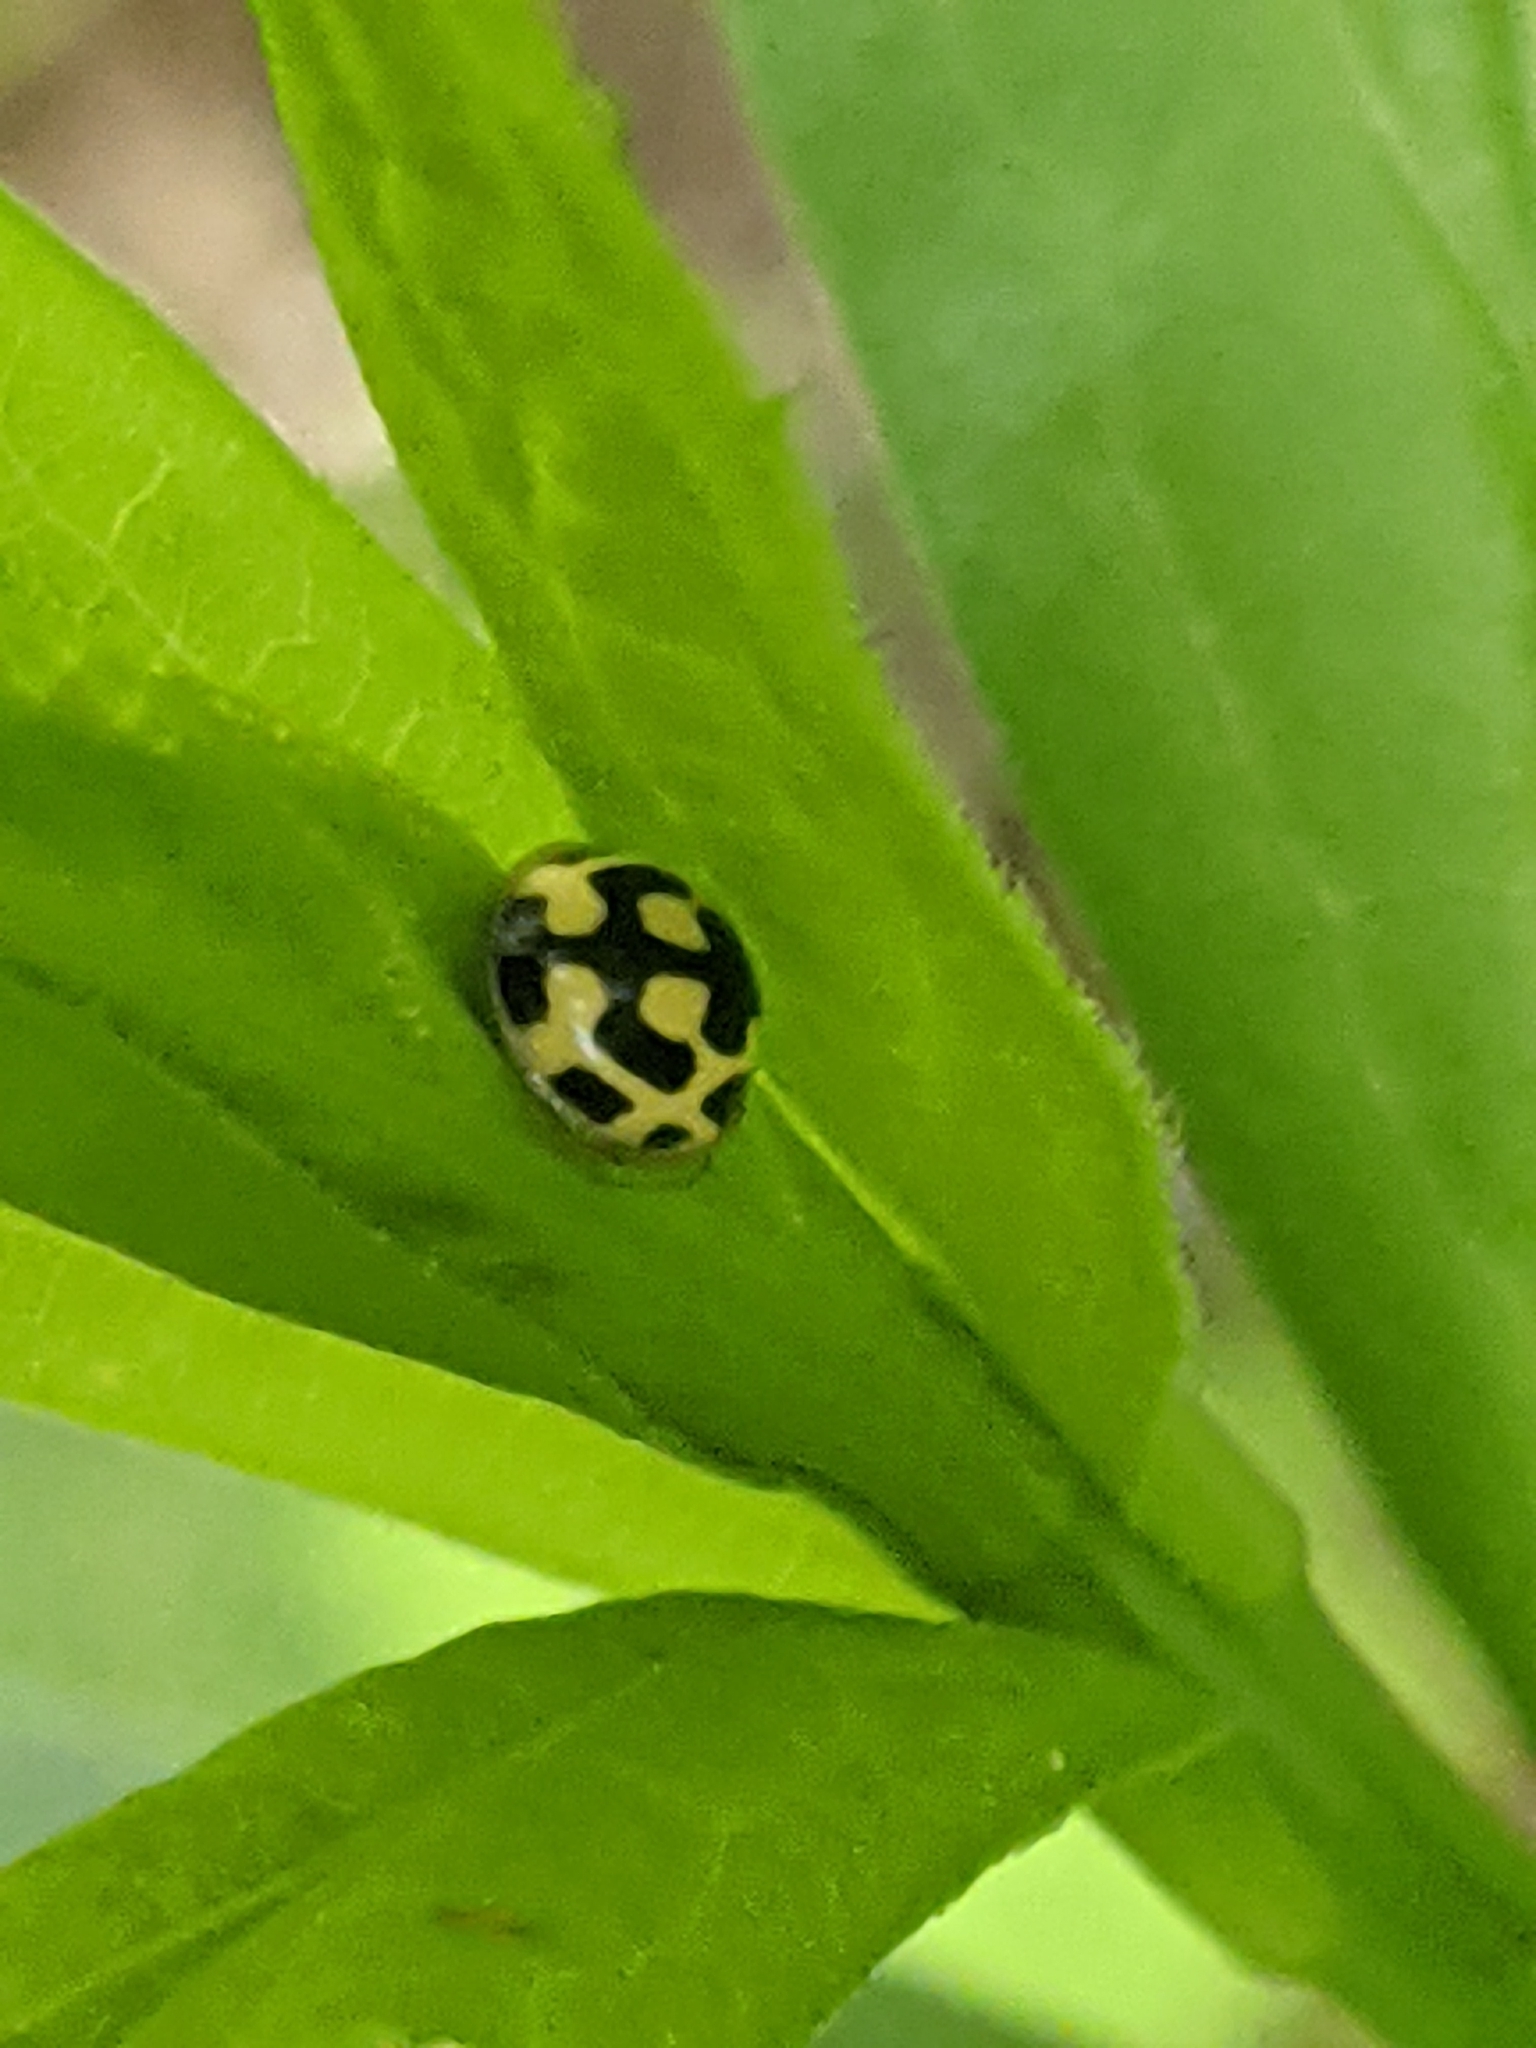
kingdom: Animalia
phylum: Arthropoda
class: Insecta
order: Coleoptera
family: Coccinellidae
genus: Propylaea
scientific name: Propylaea quatuordecimpunctata
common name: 14-spotted ladybird beetle
